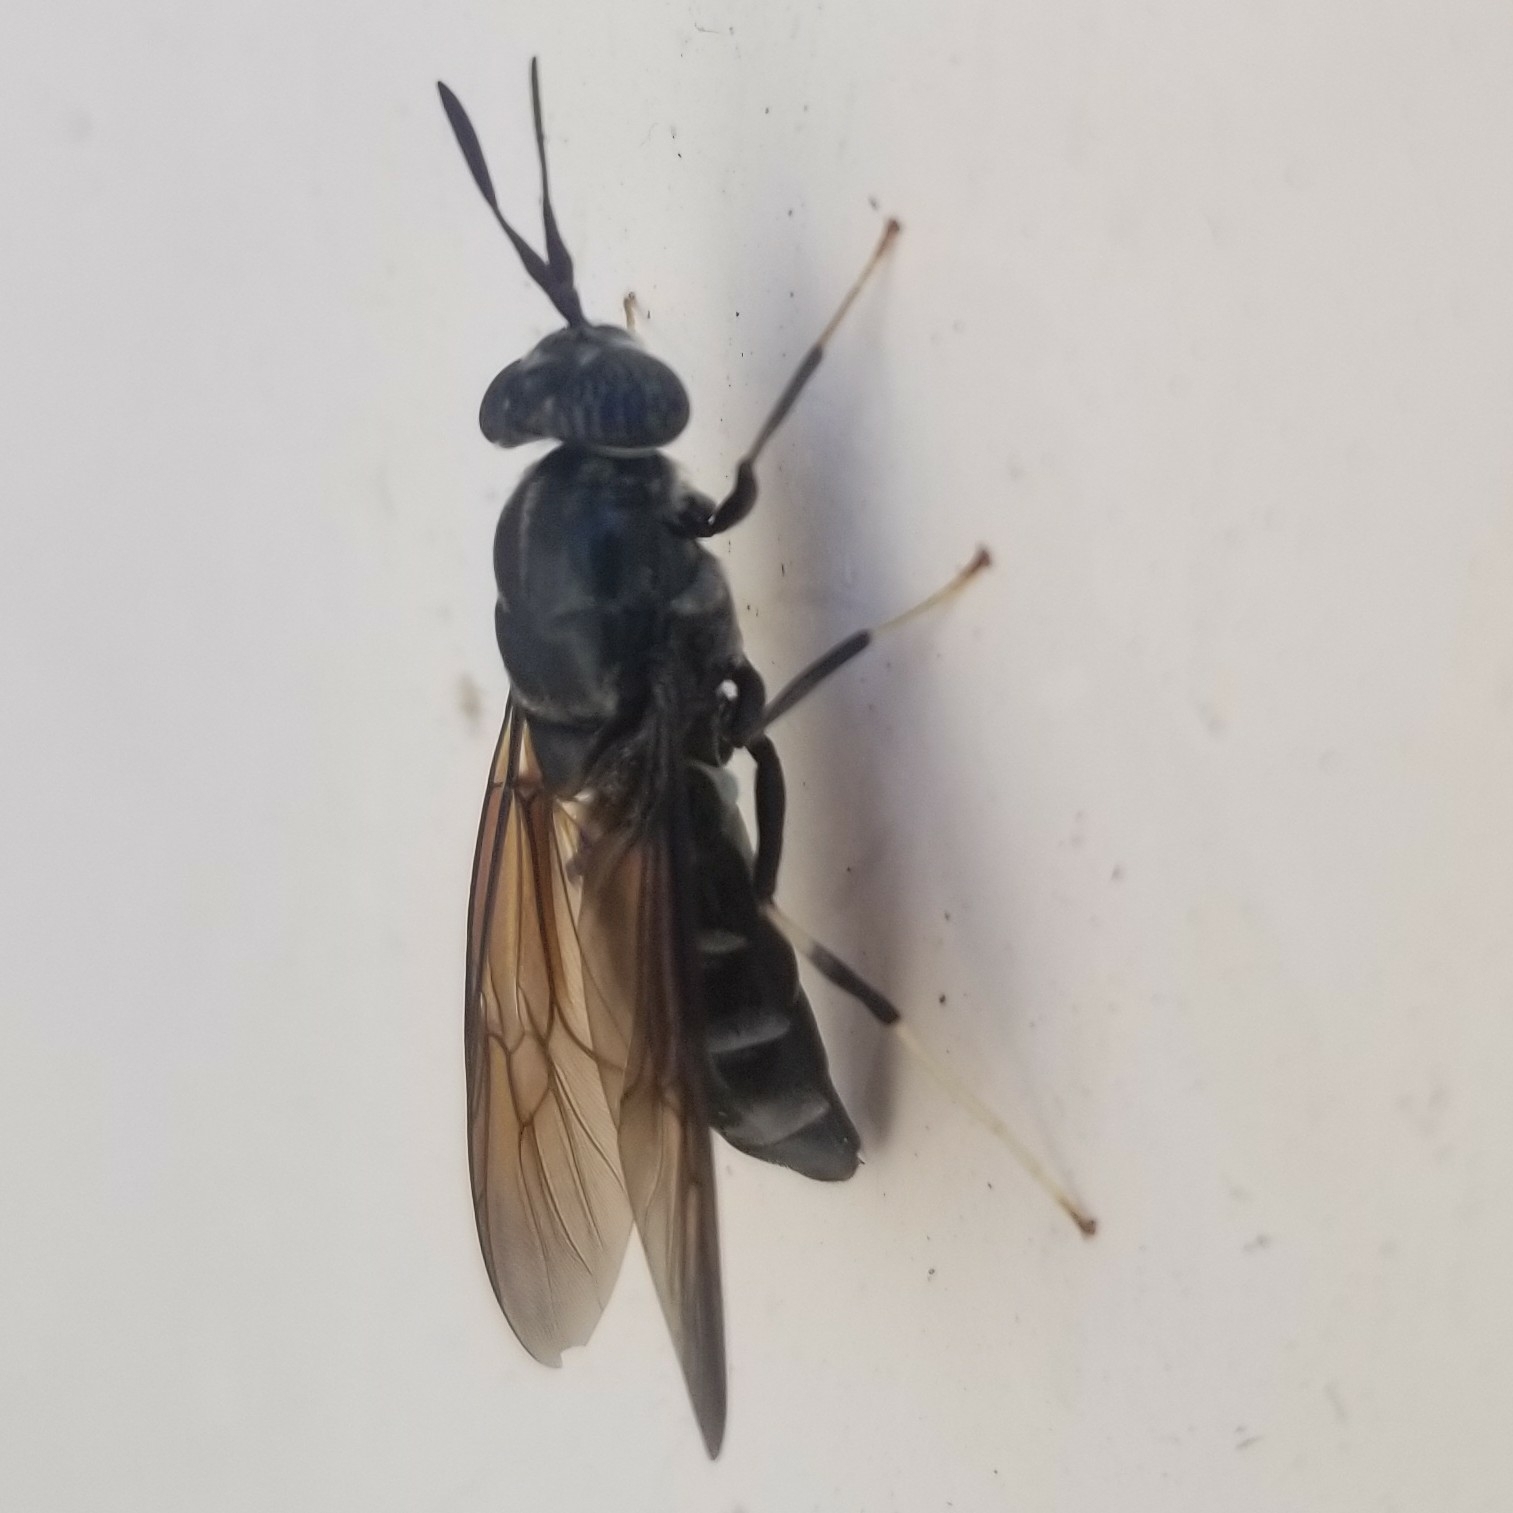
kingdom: Animalia
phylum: Arthropoda
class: Insecta
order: Diptera
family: Stratiomyidae
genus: Hermetia
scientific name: Hermetia illucens
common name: Black soldier fly
